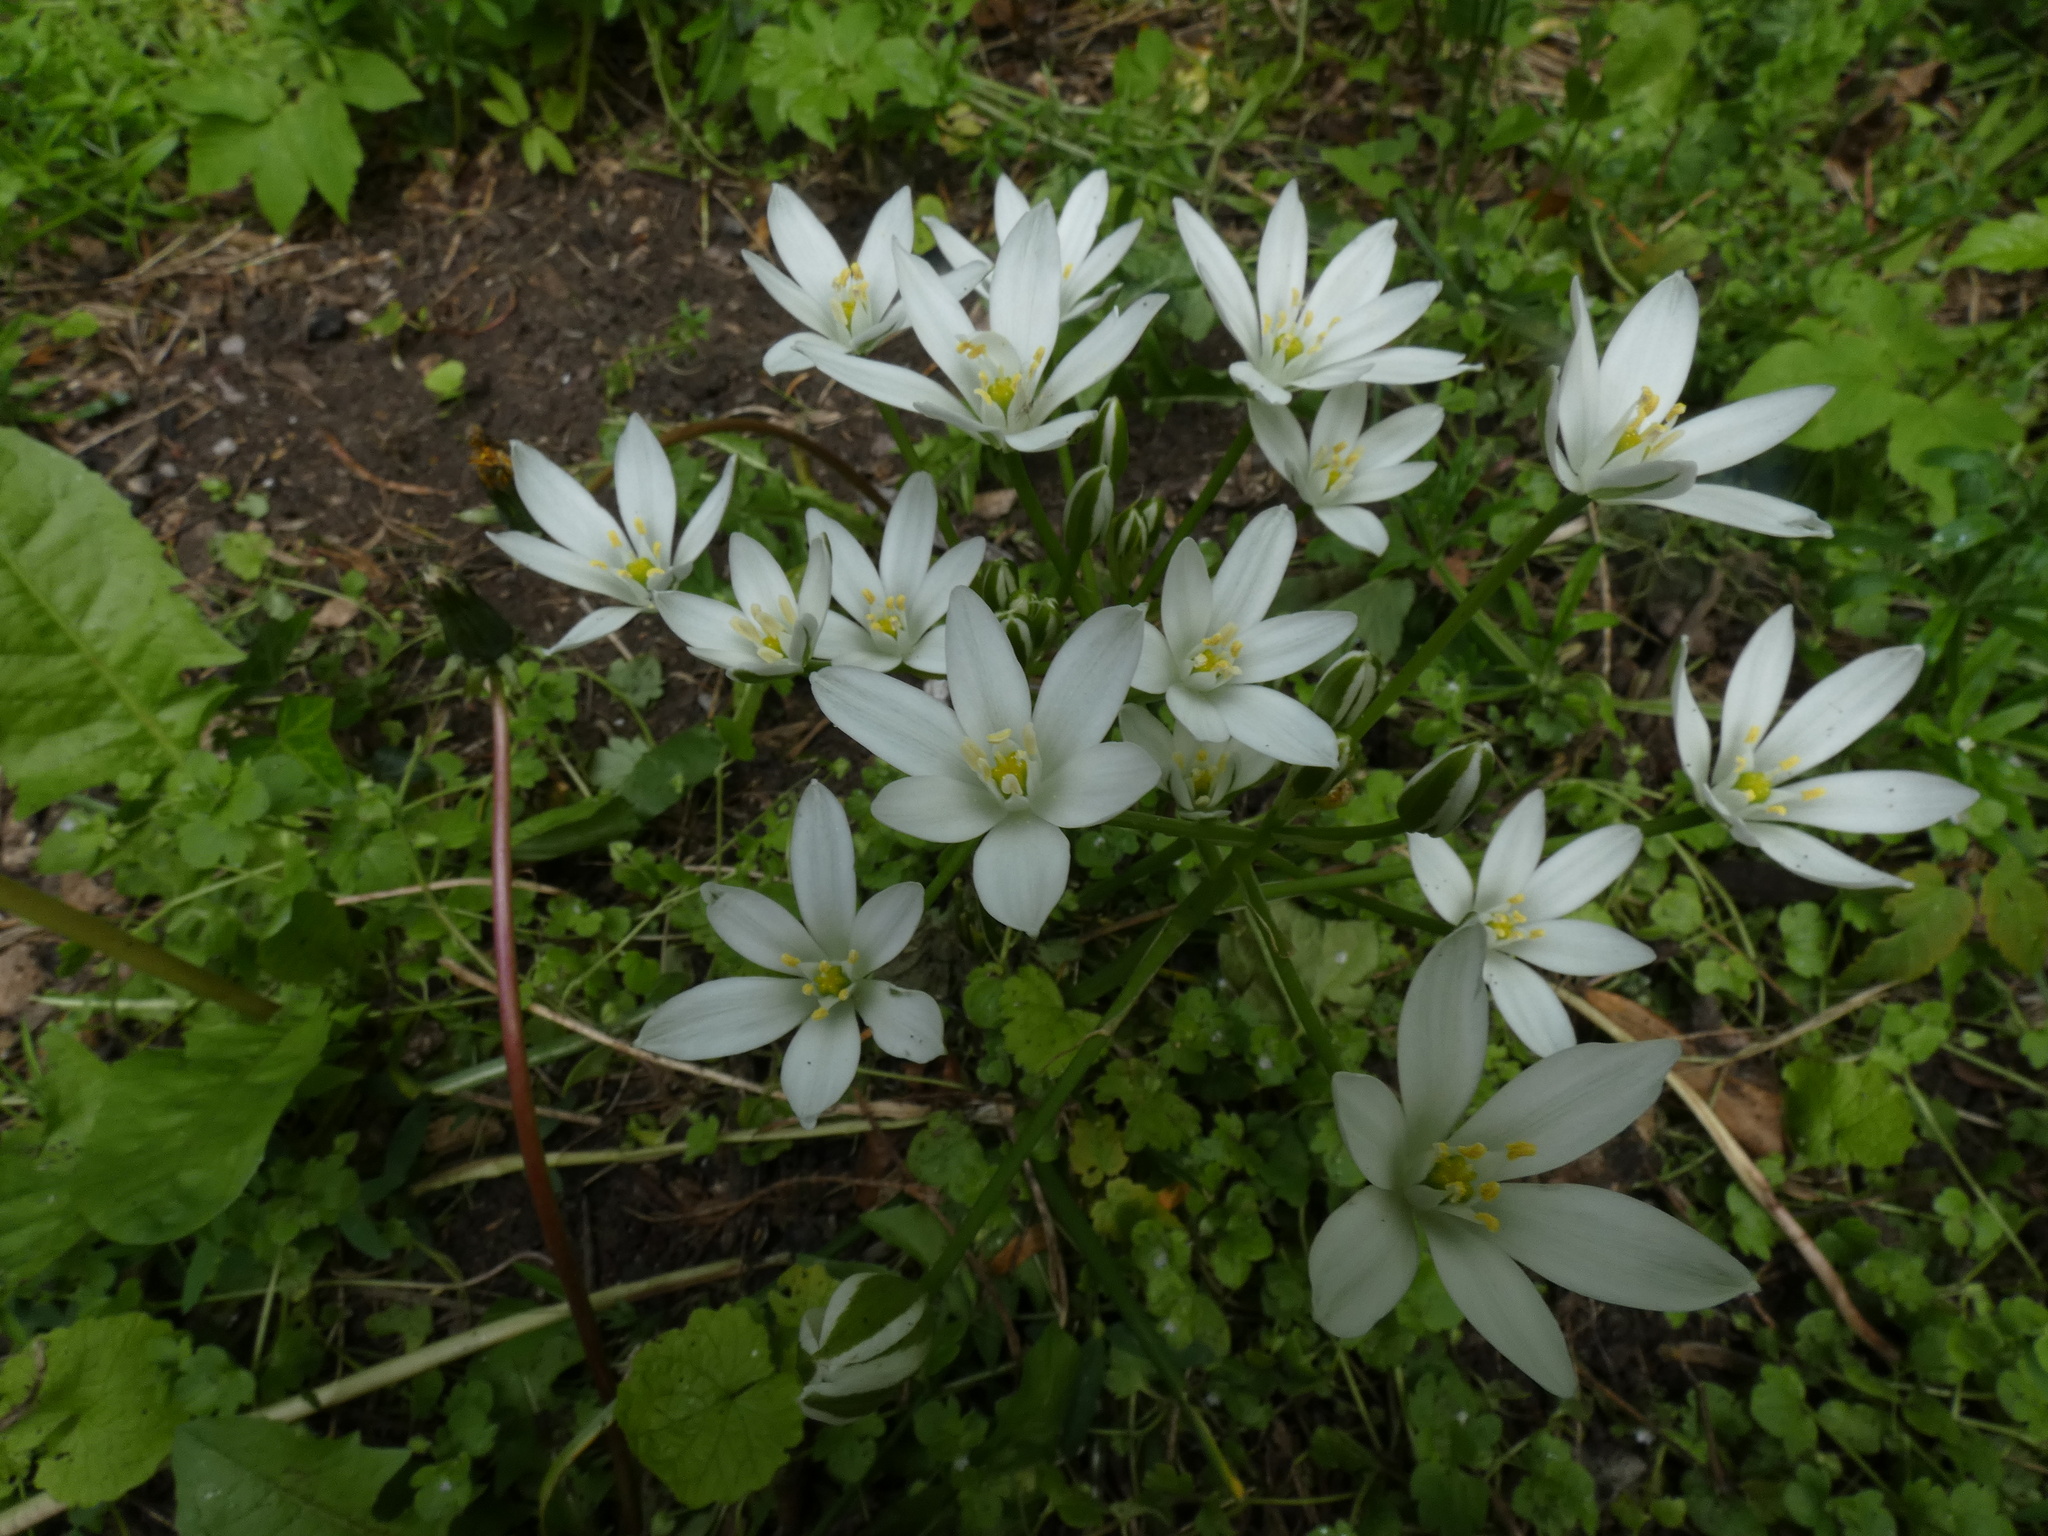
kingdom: Plantae
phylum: Tracheophyta
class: Liliopsida
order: Asparagales
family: Asparagaceae
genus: Ornithogalum
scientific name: Ornithogalum umbellatum
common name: Garden star-of-bethlehem
